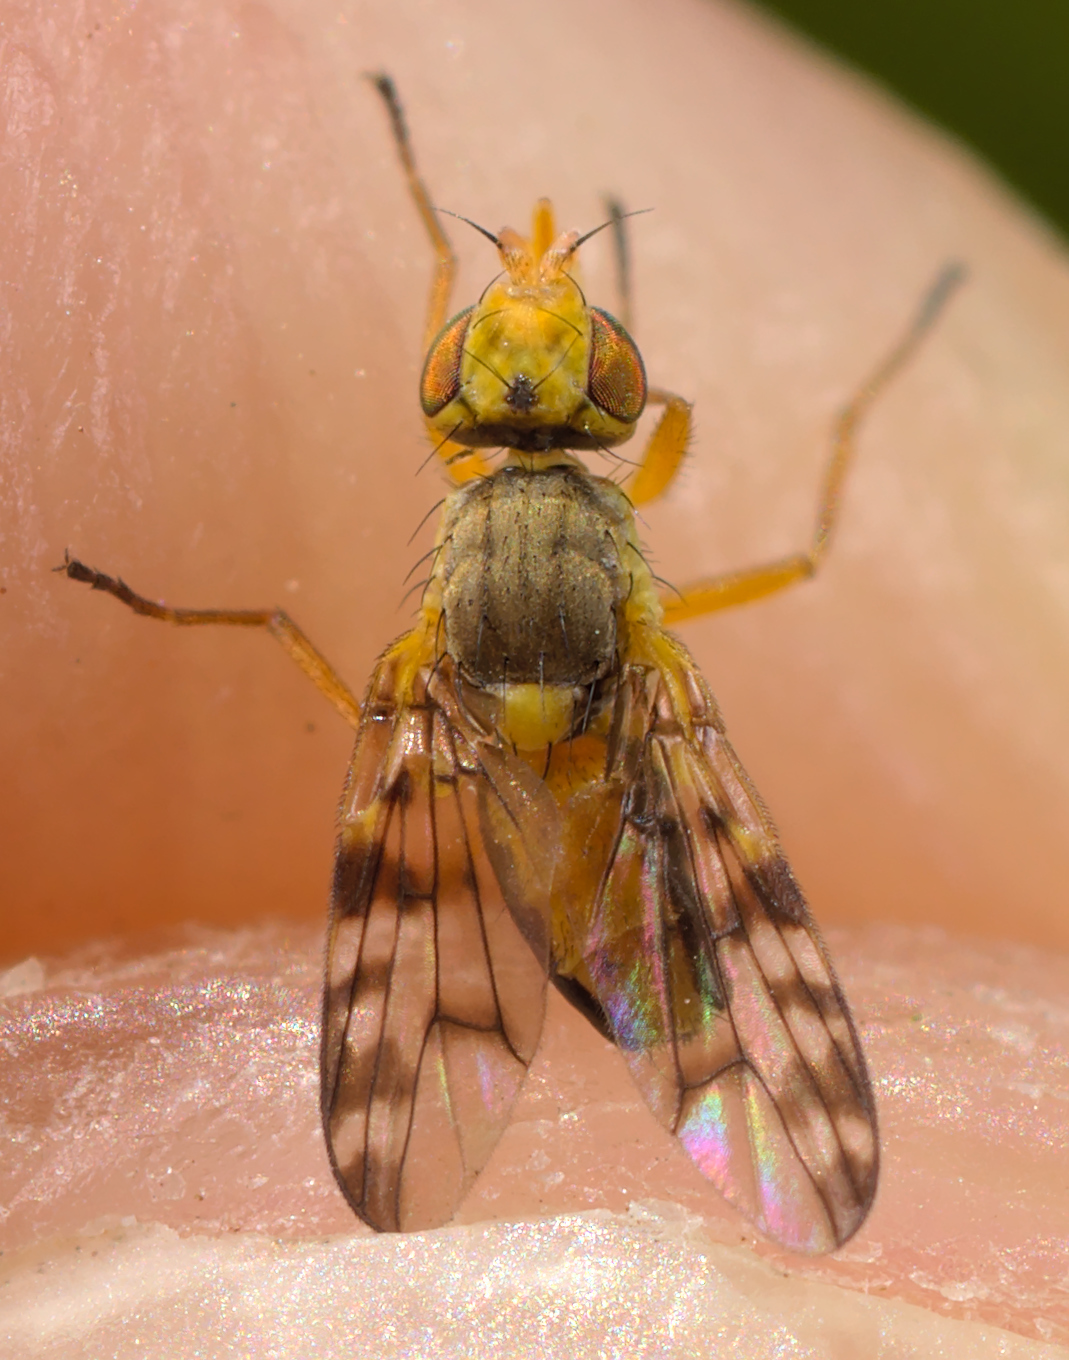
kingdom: Animalia
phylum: Arthropoda
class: Insecta
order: Diptera
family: Tephritidae
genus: Myopites
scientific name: Myopites apicatus
